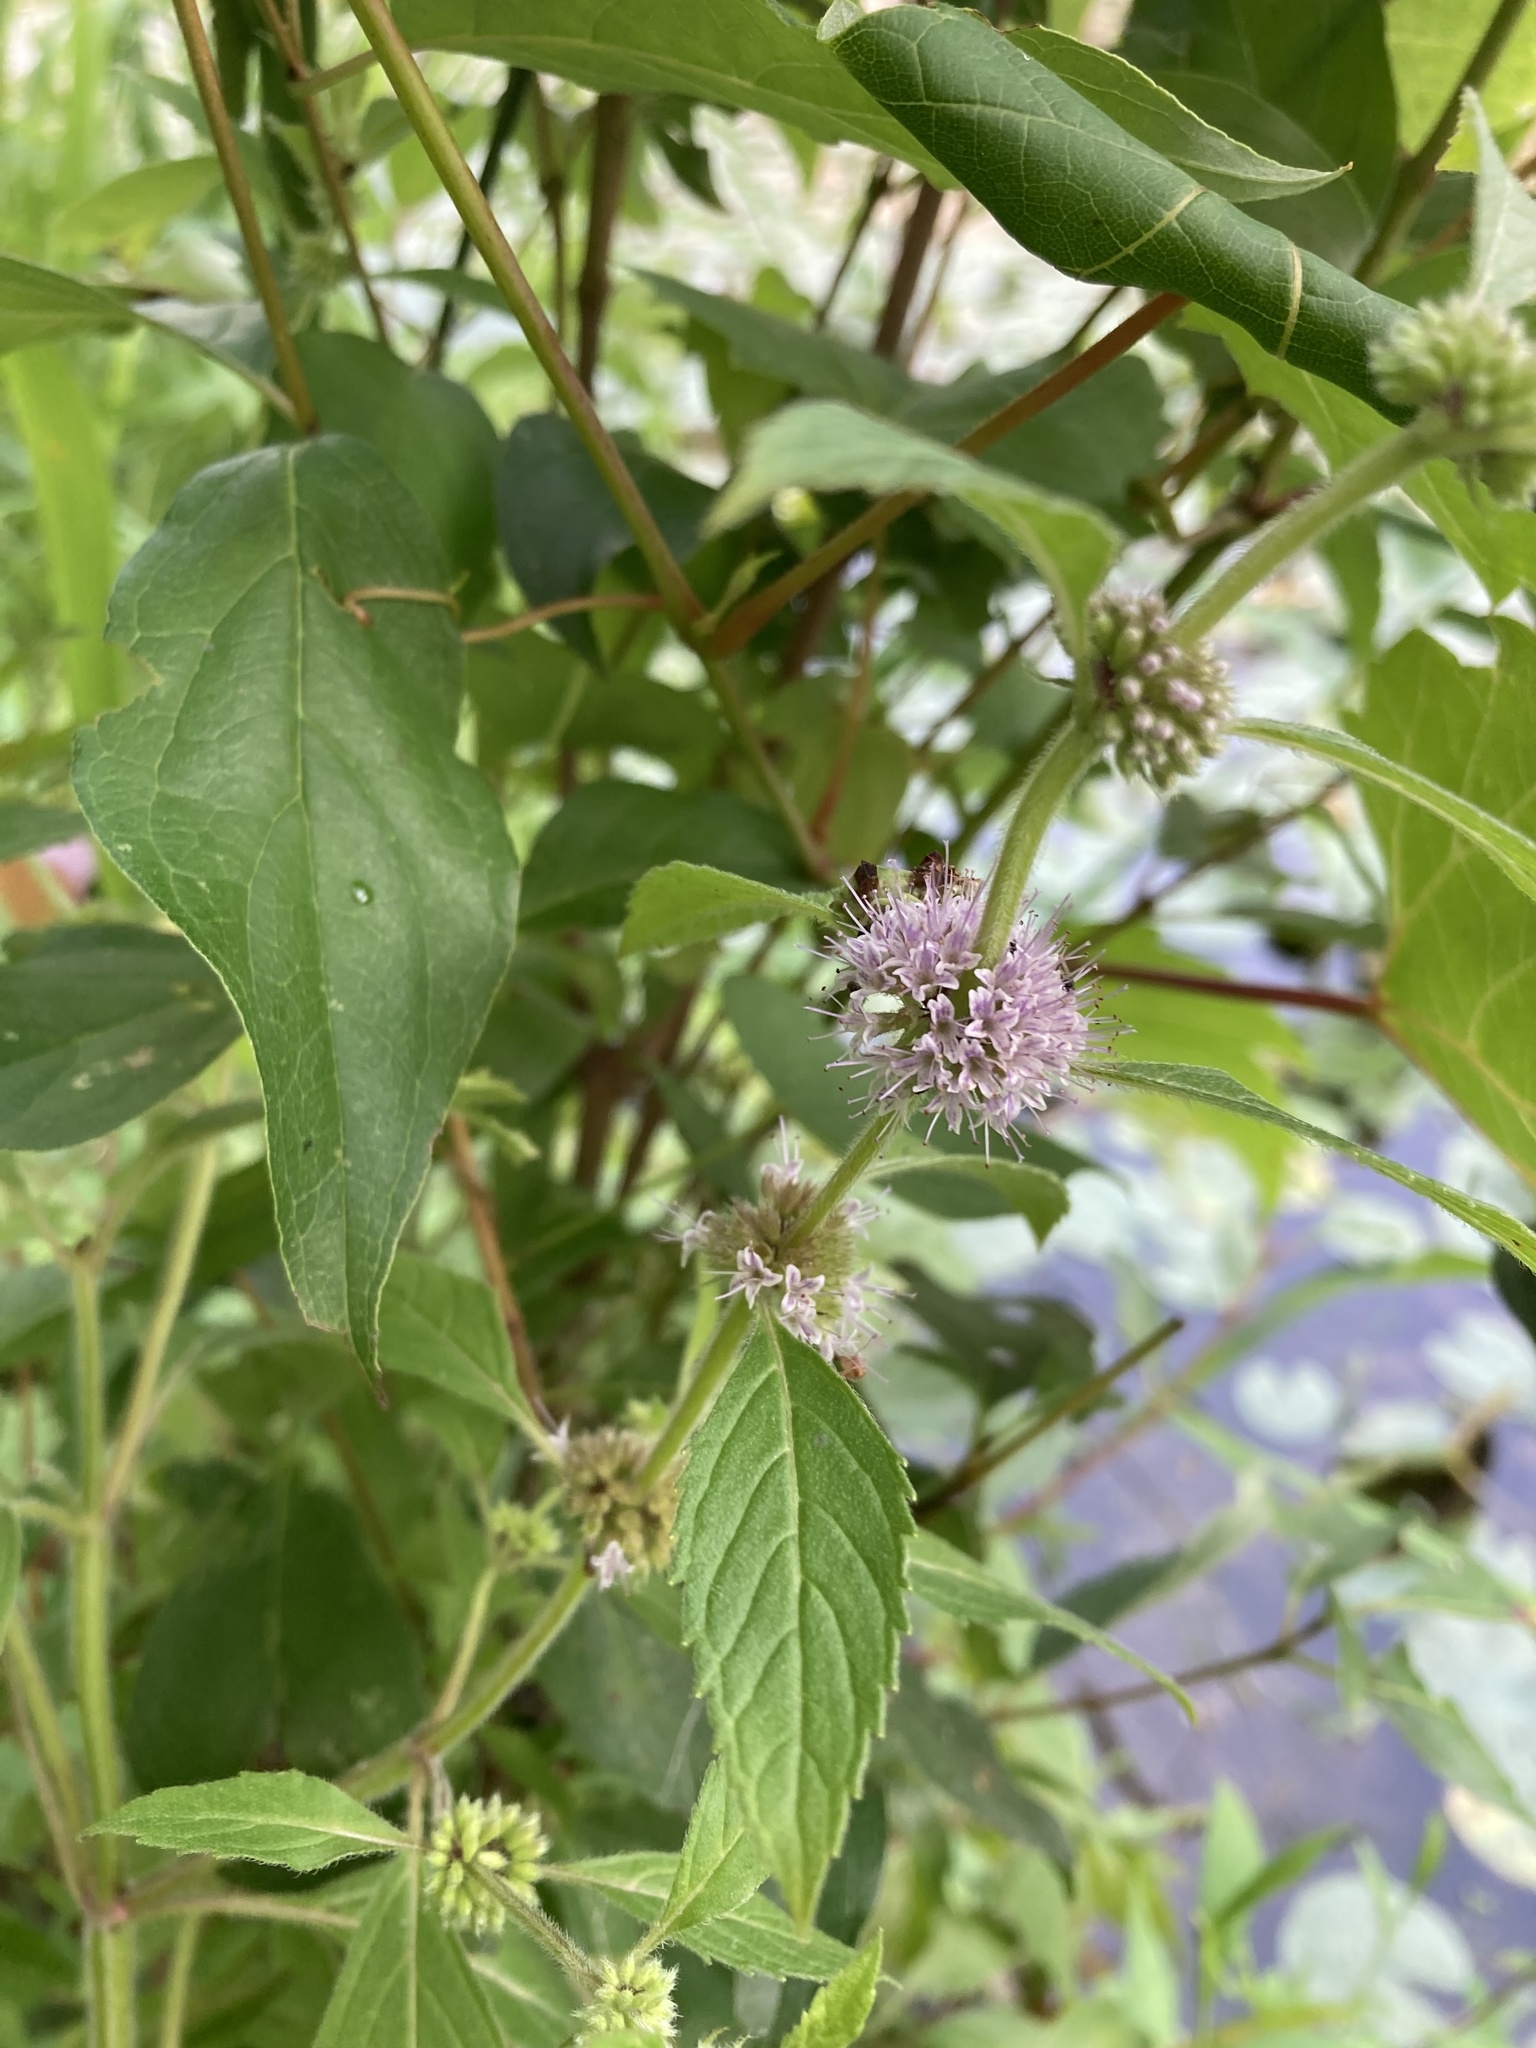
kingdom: Plantae
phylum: Tracheophyta
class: Magnoliopsida
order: Lamiales
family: Lamiaceae
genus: Mentha
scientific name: Mentha canadensis
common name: American corn mint
